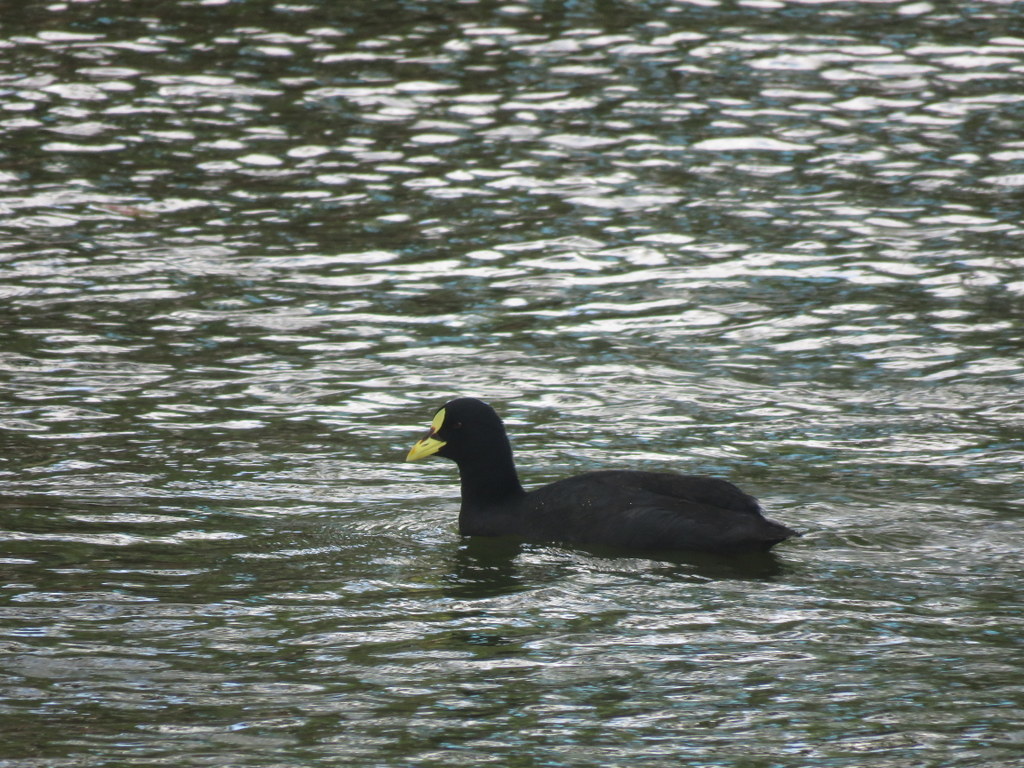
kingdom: Animalia
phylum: Chordata
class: Aves
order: Gruiformes
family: Rallidae
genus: Fulica
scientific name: Fulica armillata
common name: Red-gartered coot
